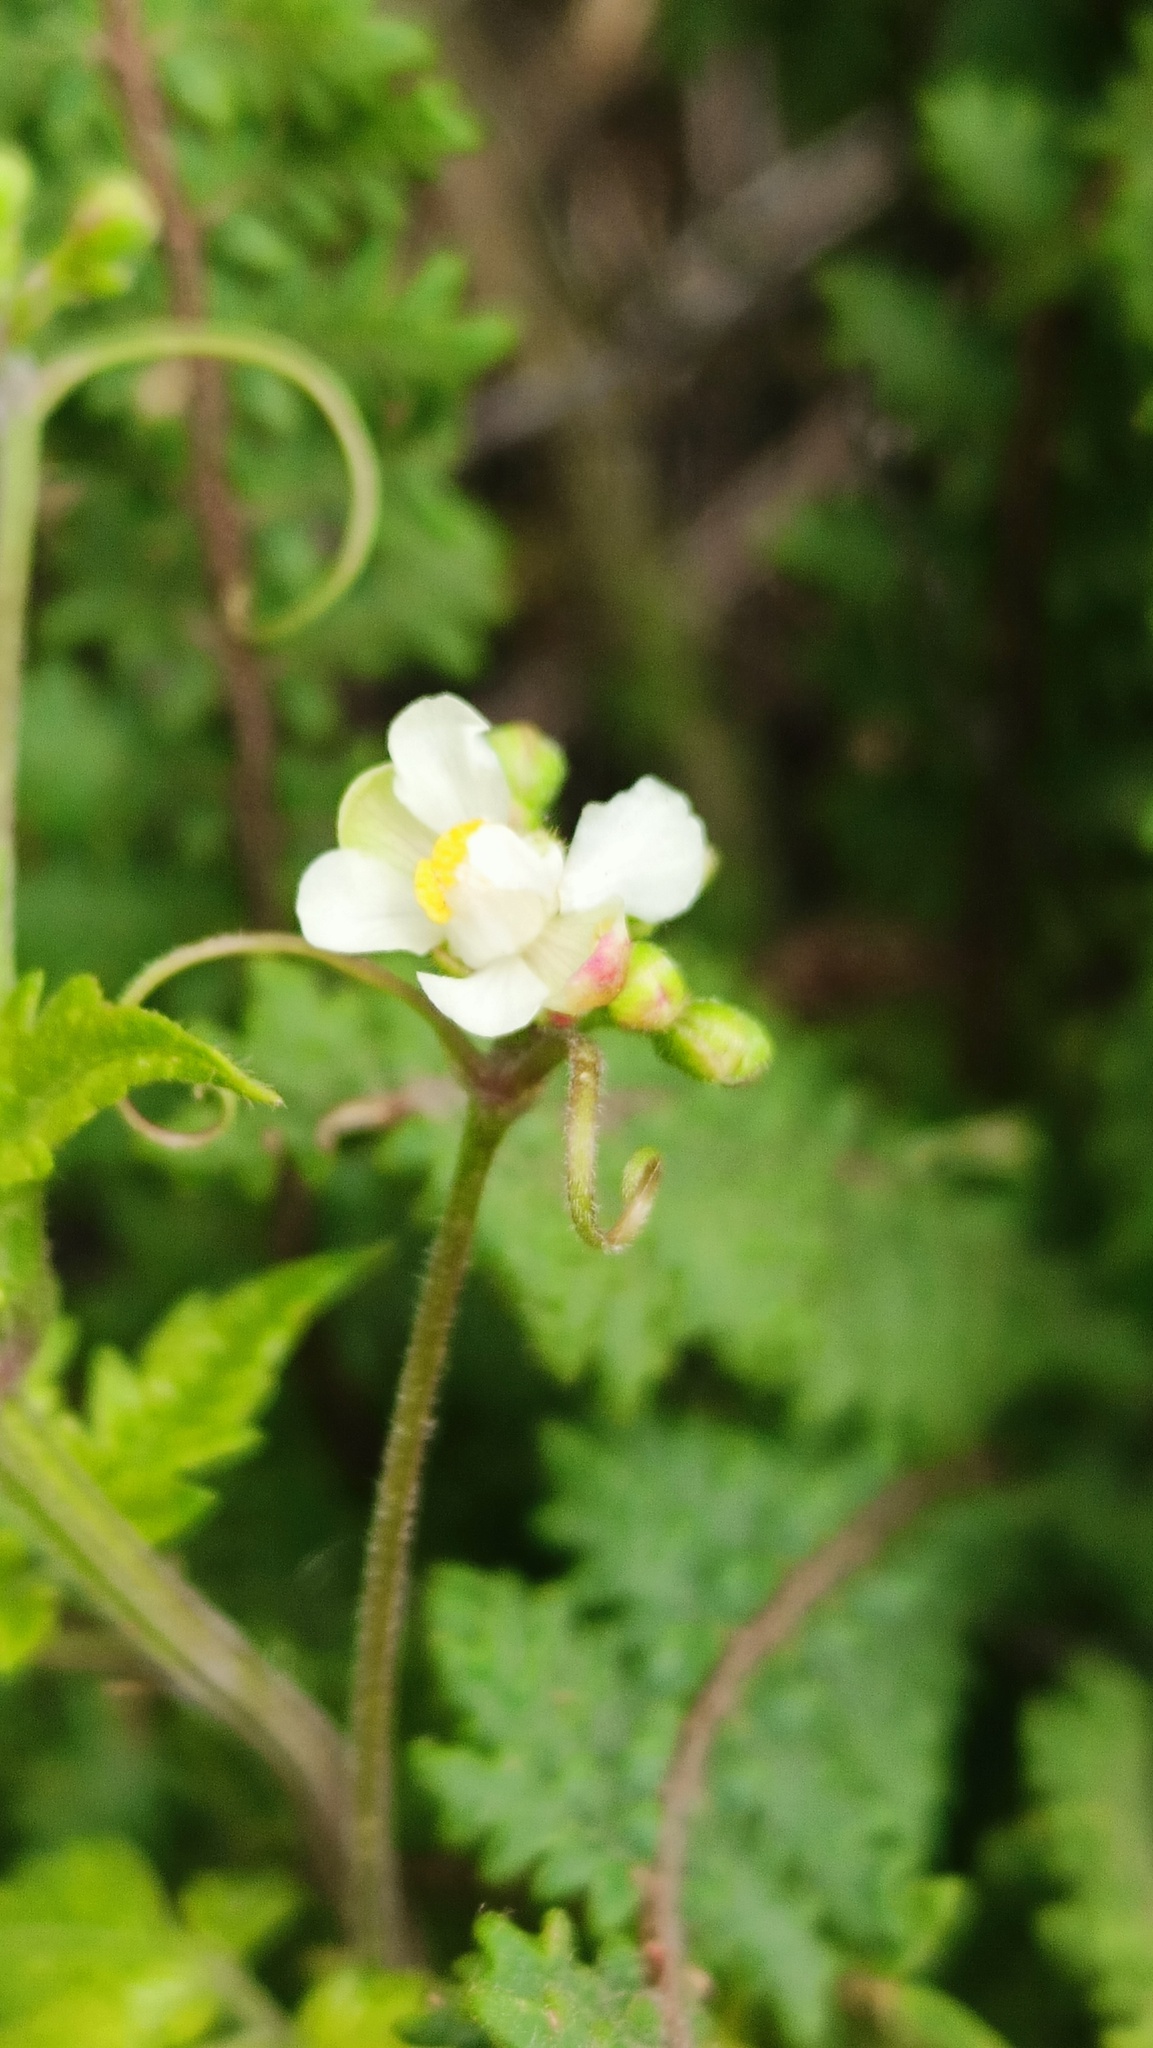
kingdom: Plantae
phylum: Tracheophyta
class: Magnoliopsida
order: Sapindales
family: Sapindaceae
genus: Cardiospermum
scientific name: Cardiospermum halicacabum
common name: Balloon vine
